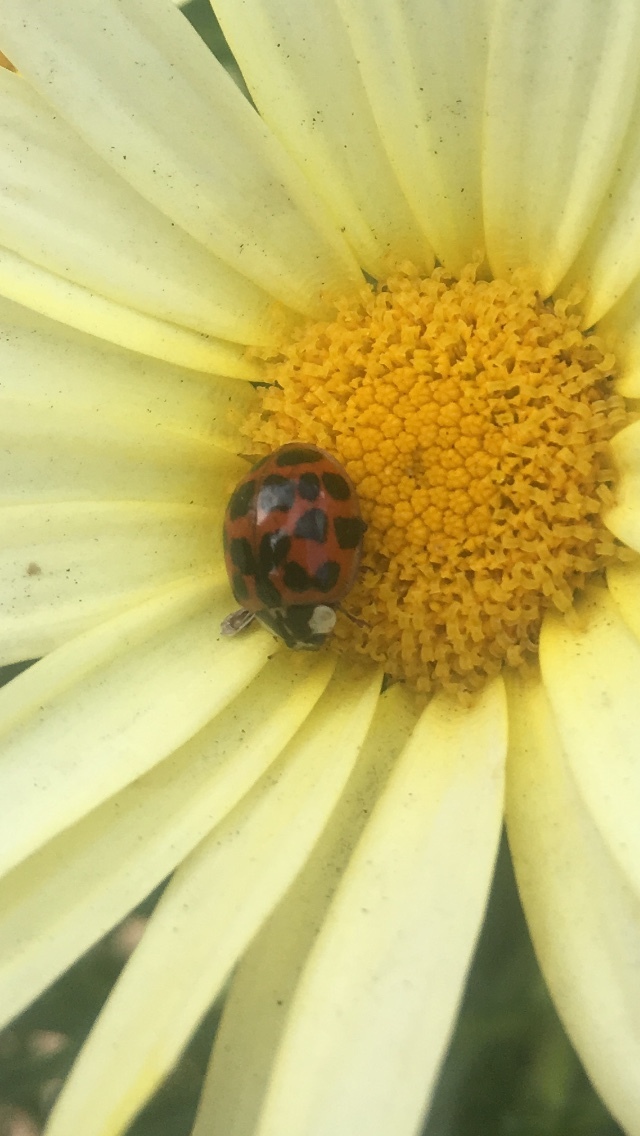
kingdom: Animalia
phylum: Arthropoda
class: Insecta
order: Coleoptera
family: Coccinellidae
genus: Harmonia
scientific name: Harmonia axyridis
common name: Harlequin ladybird
